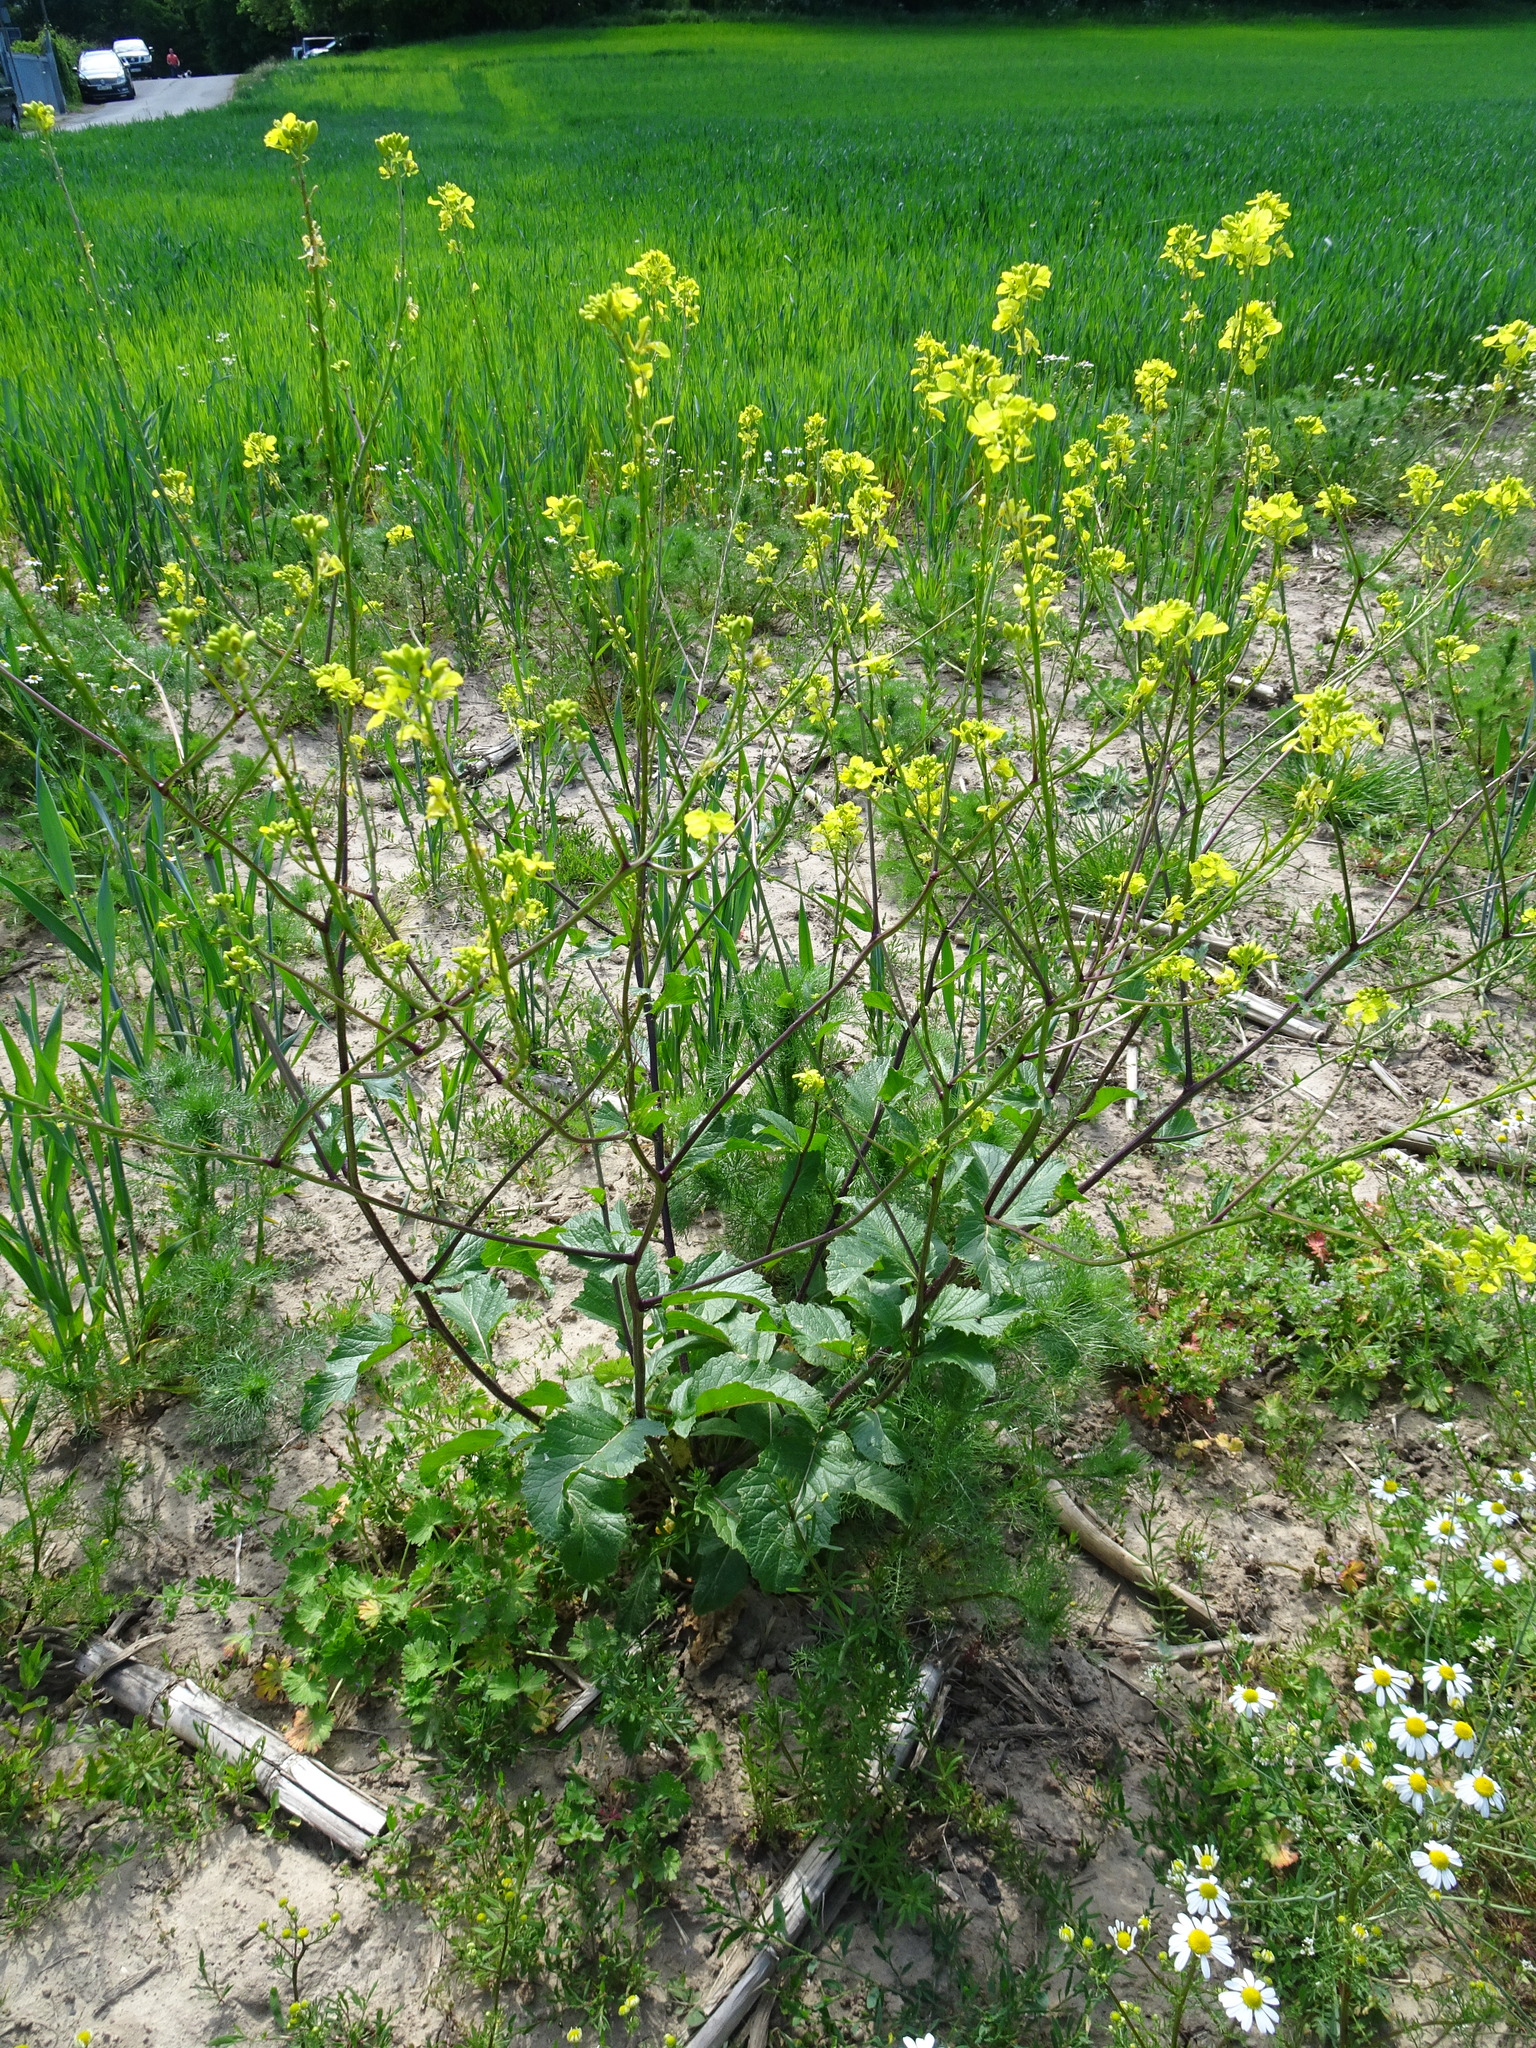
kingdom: Plantae
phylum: Tracheophyta
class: Magnoliopsida
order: Brassicales
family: Brassicaceae
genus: Sinapis
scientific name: Sinapis arvensis
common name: Charlock
